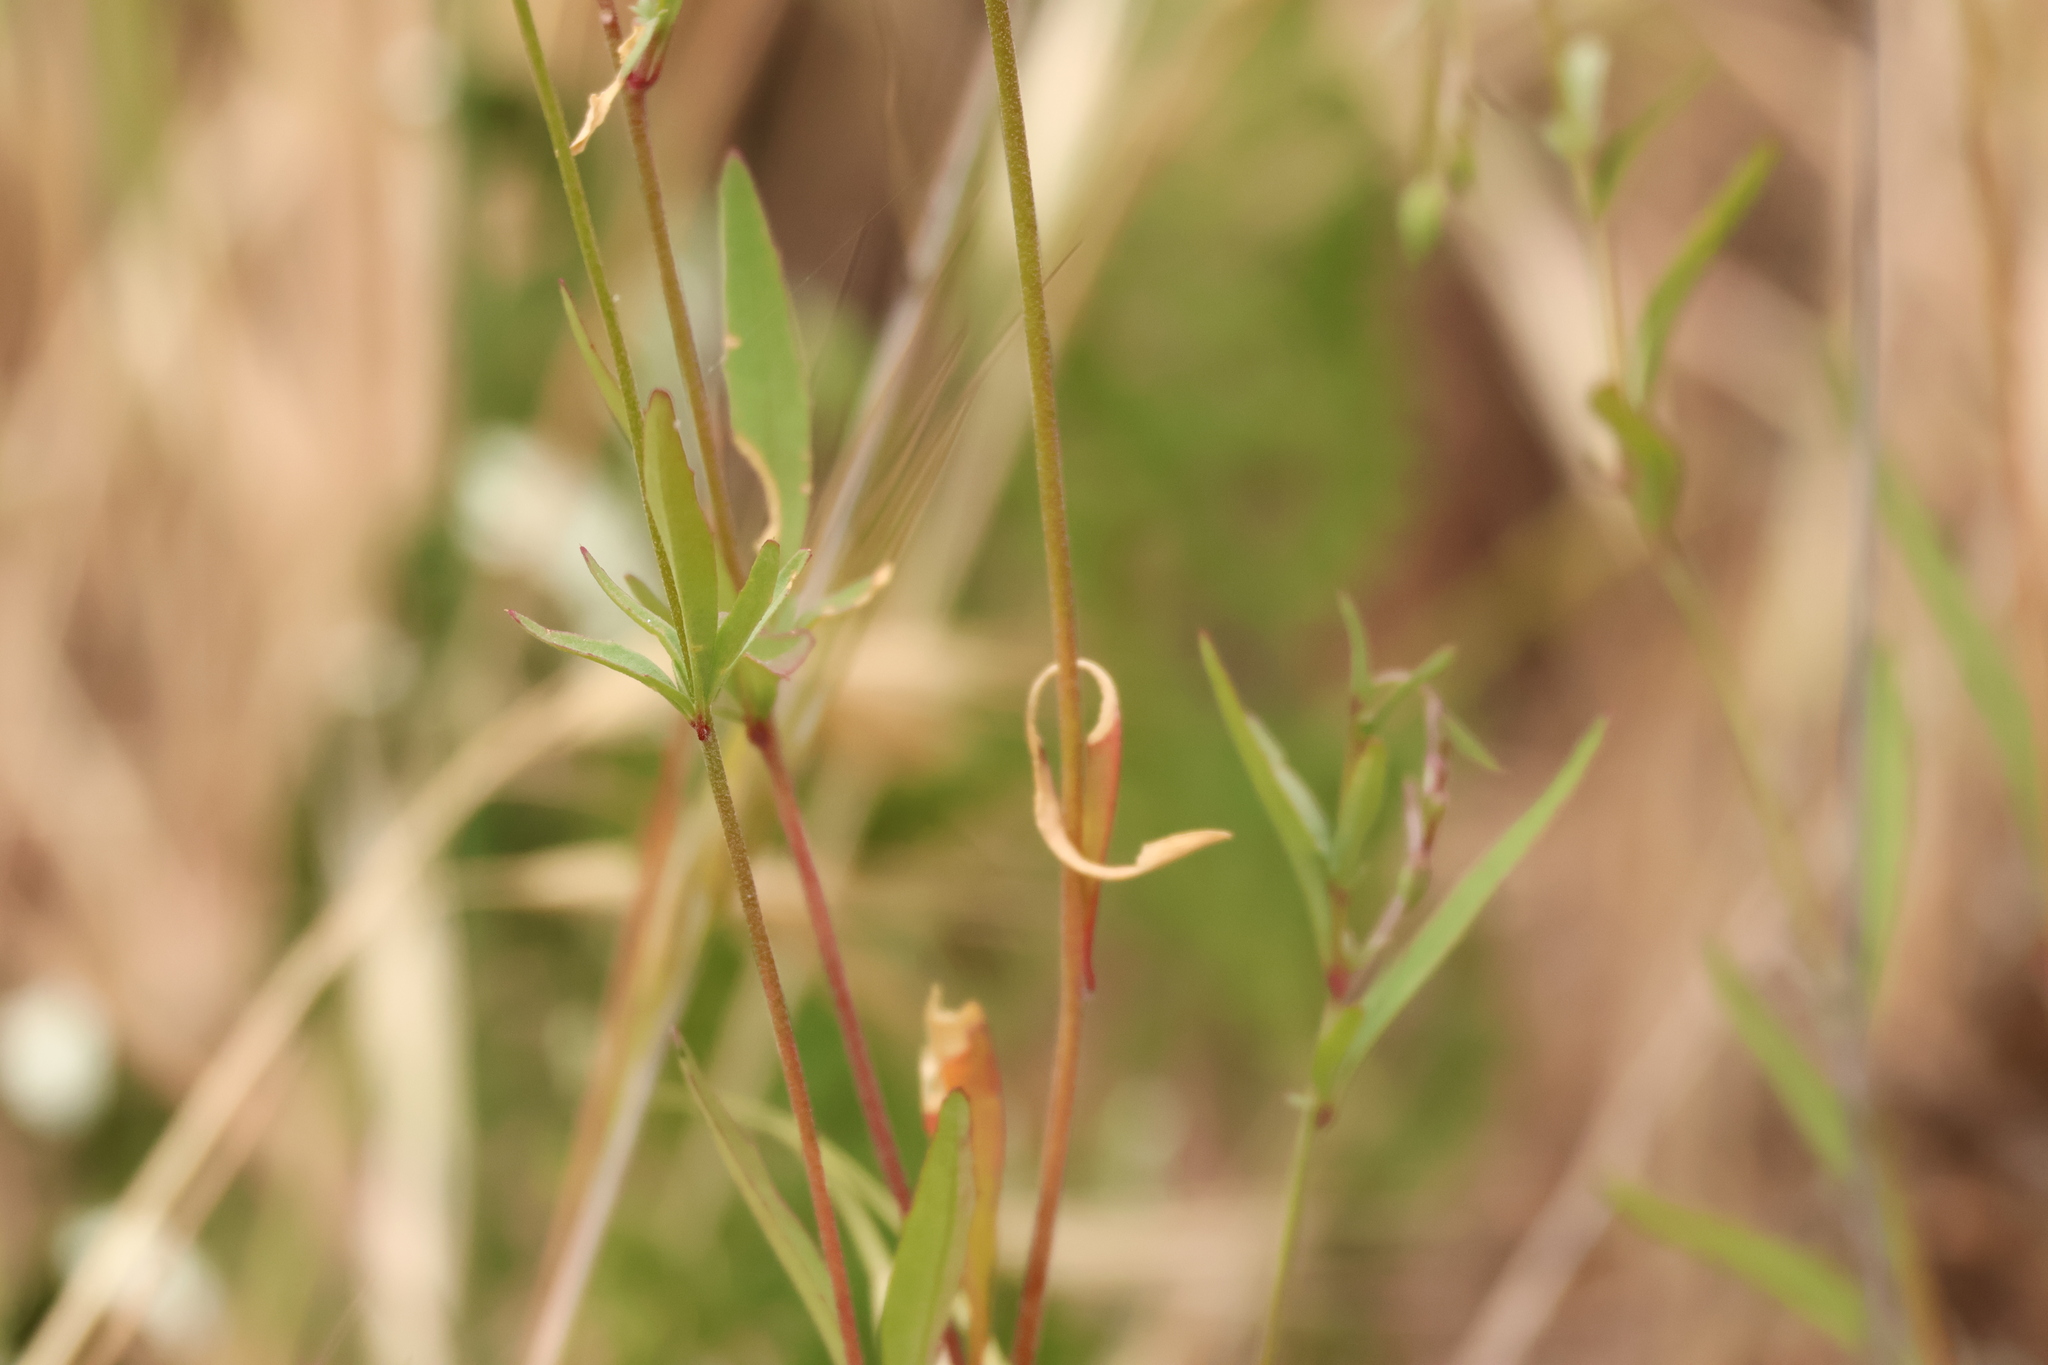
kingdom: Plantae
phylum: Tracheophyta
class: Magnoliopsida
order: Myrtales
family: Onagraceae
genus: Clarkia
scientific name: Clarkia epilobioides
